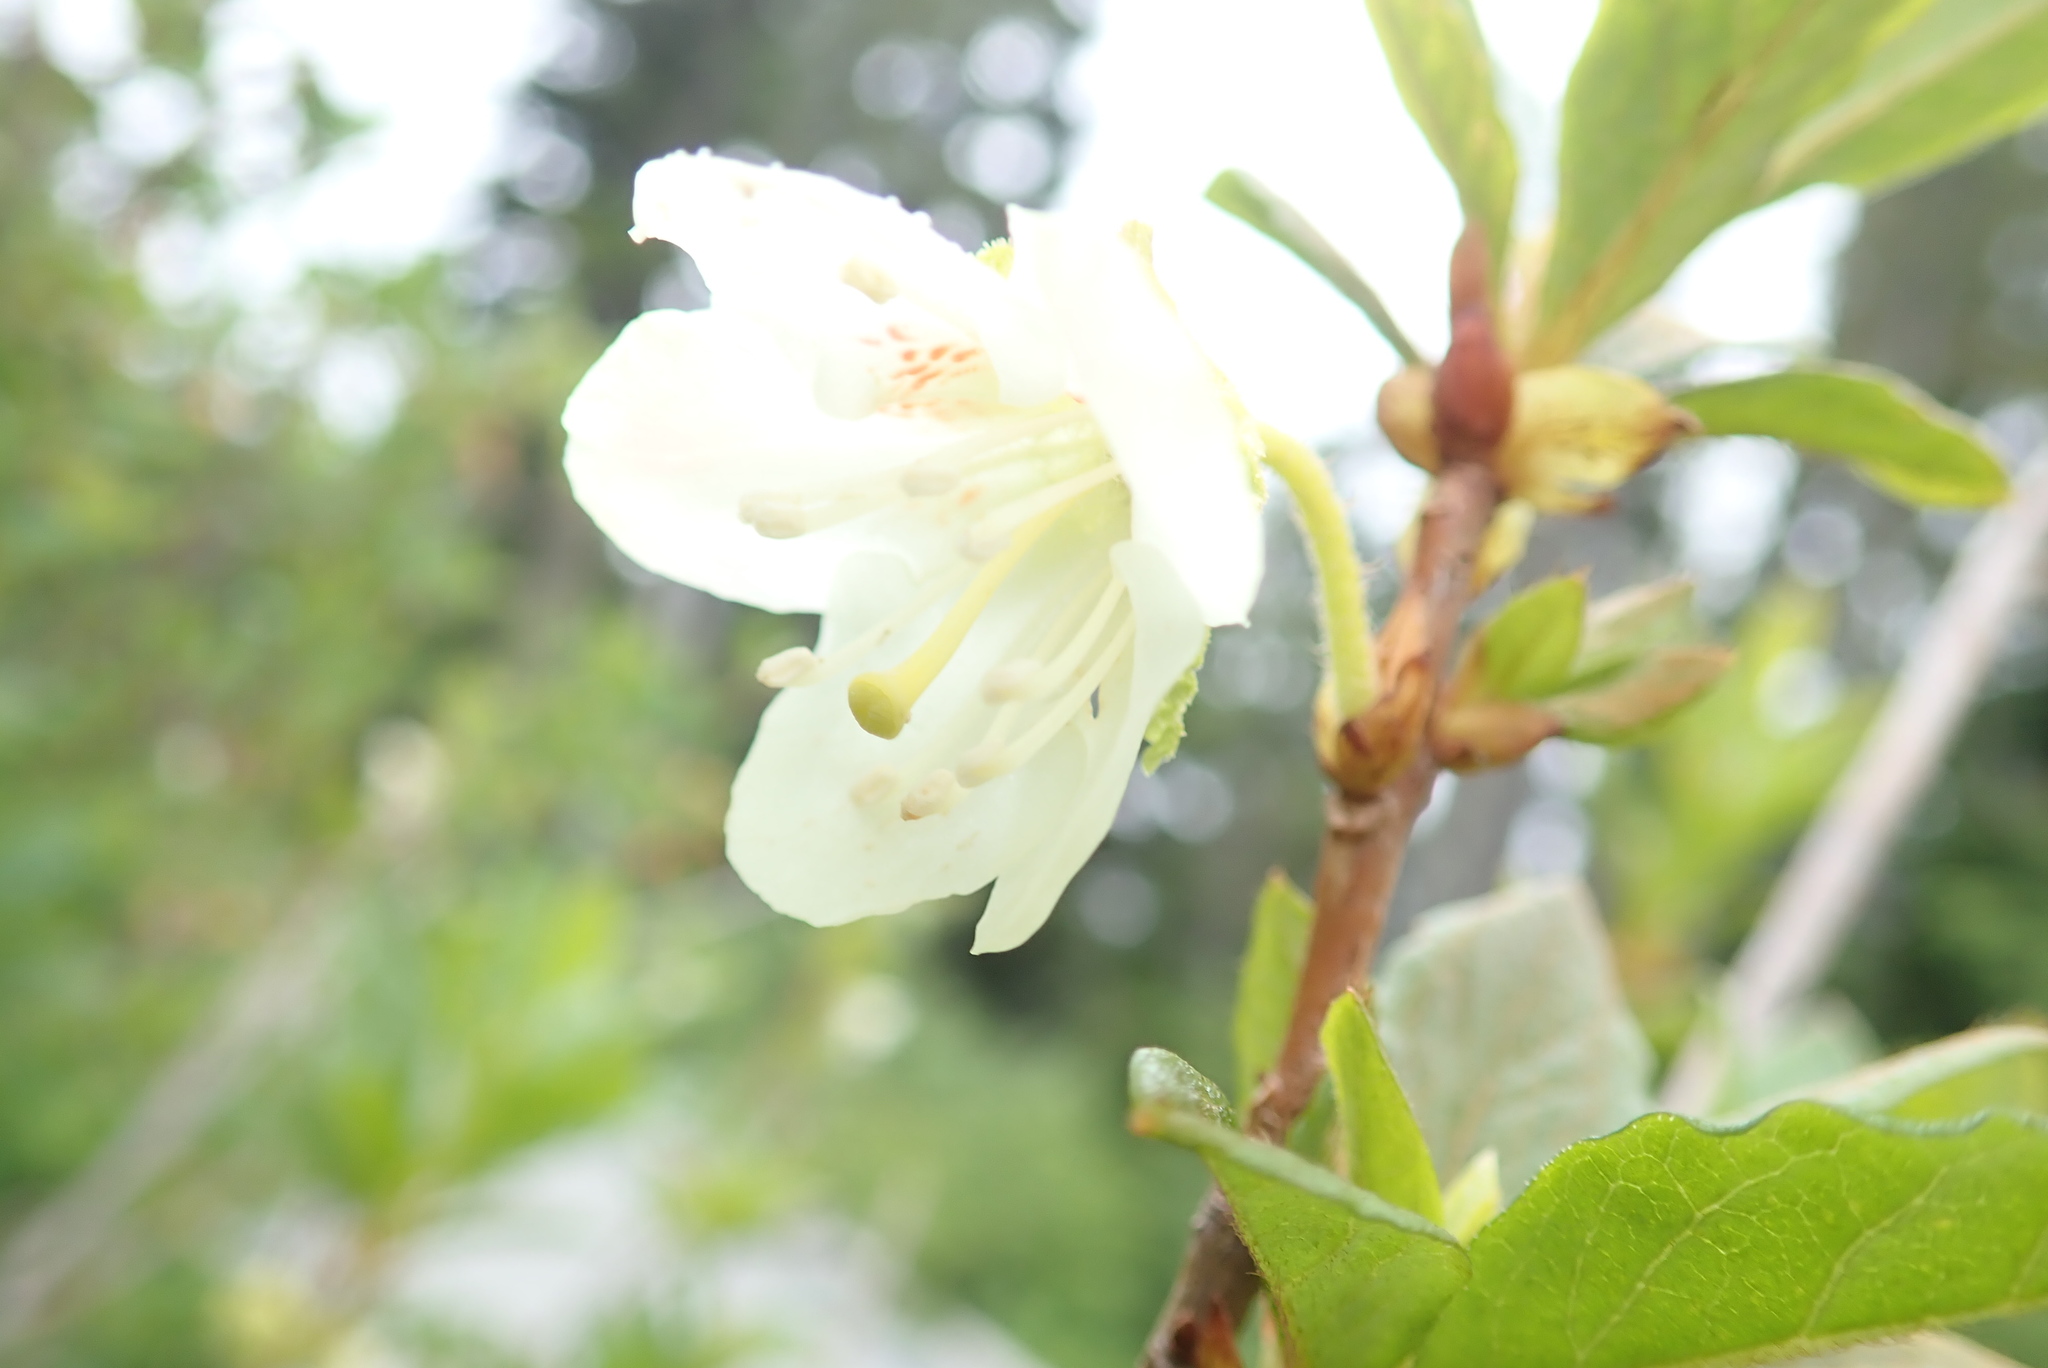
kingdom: Plantae
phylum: Tracheophyta
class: Magnoliopsida
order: Ericales
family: Ericaceae
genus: Rhododendron
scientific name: Rhododendron albiflorum
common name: White rhododendron
